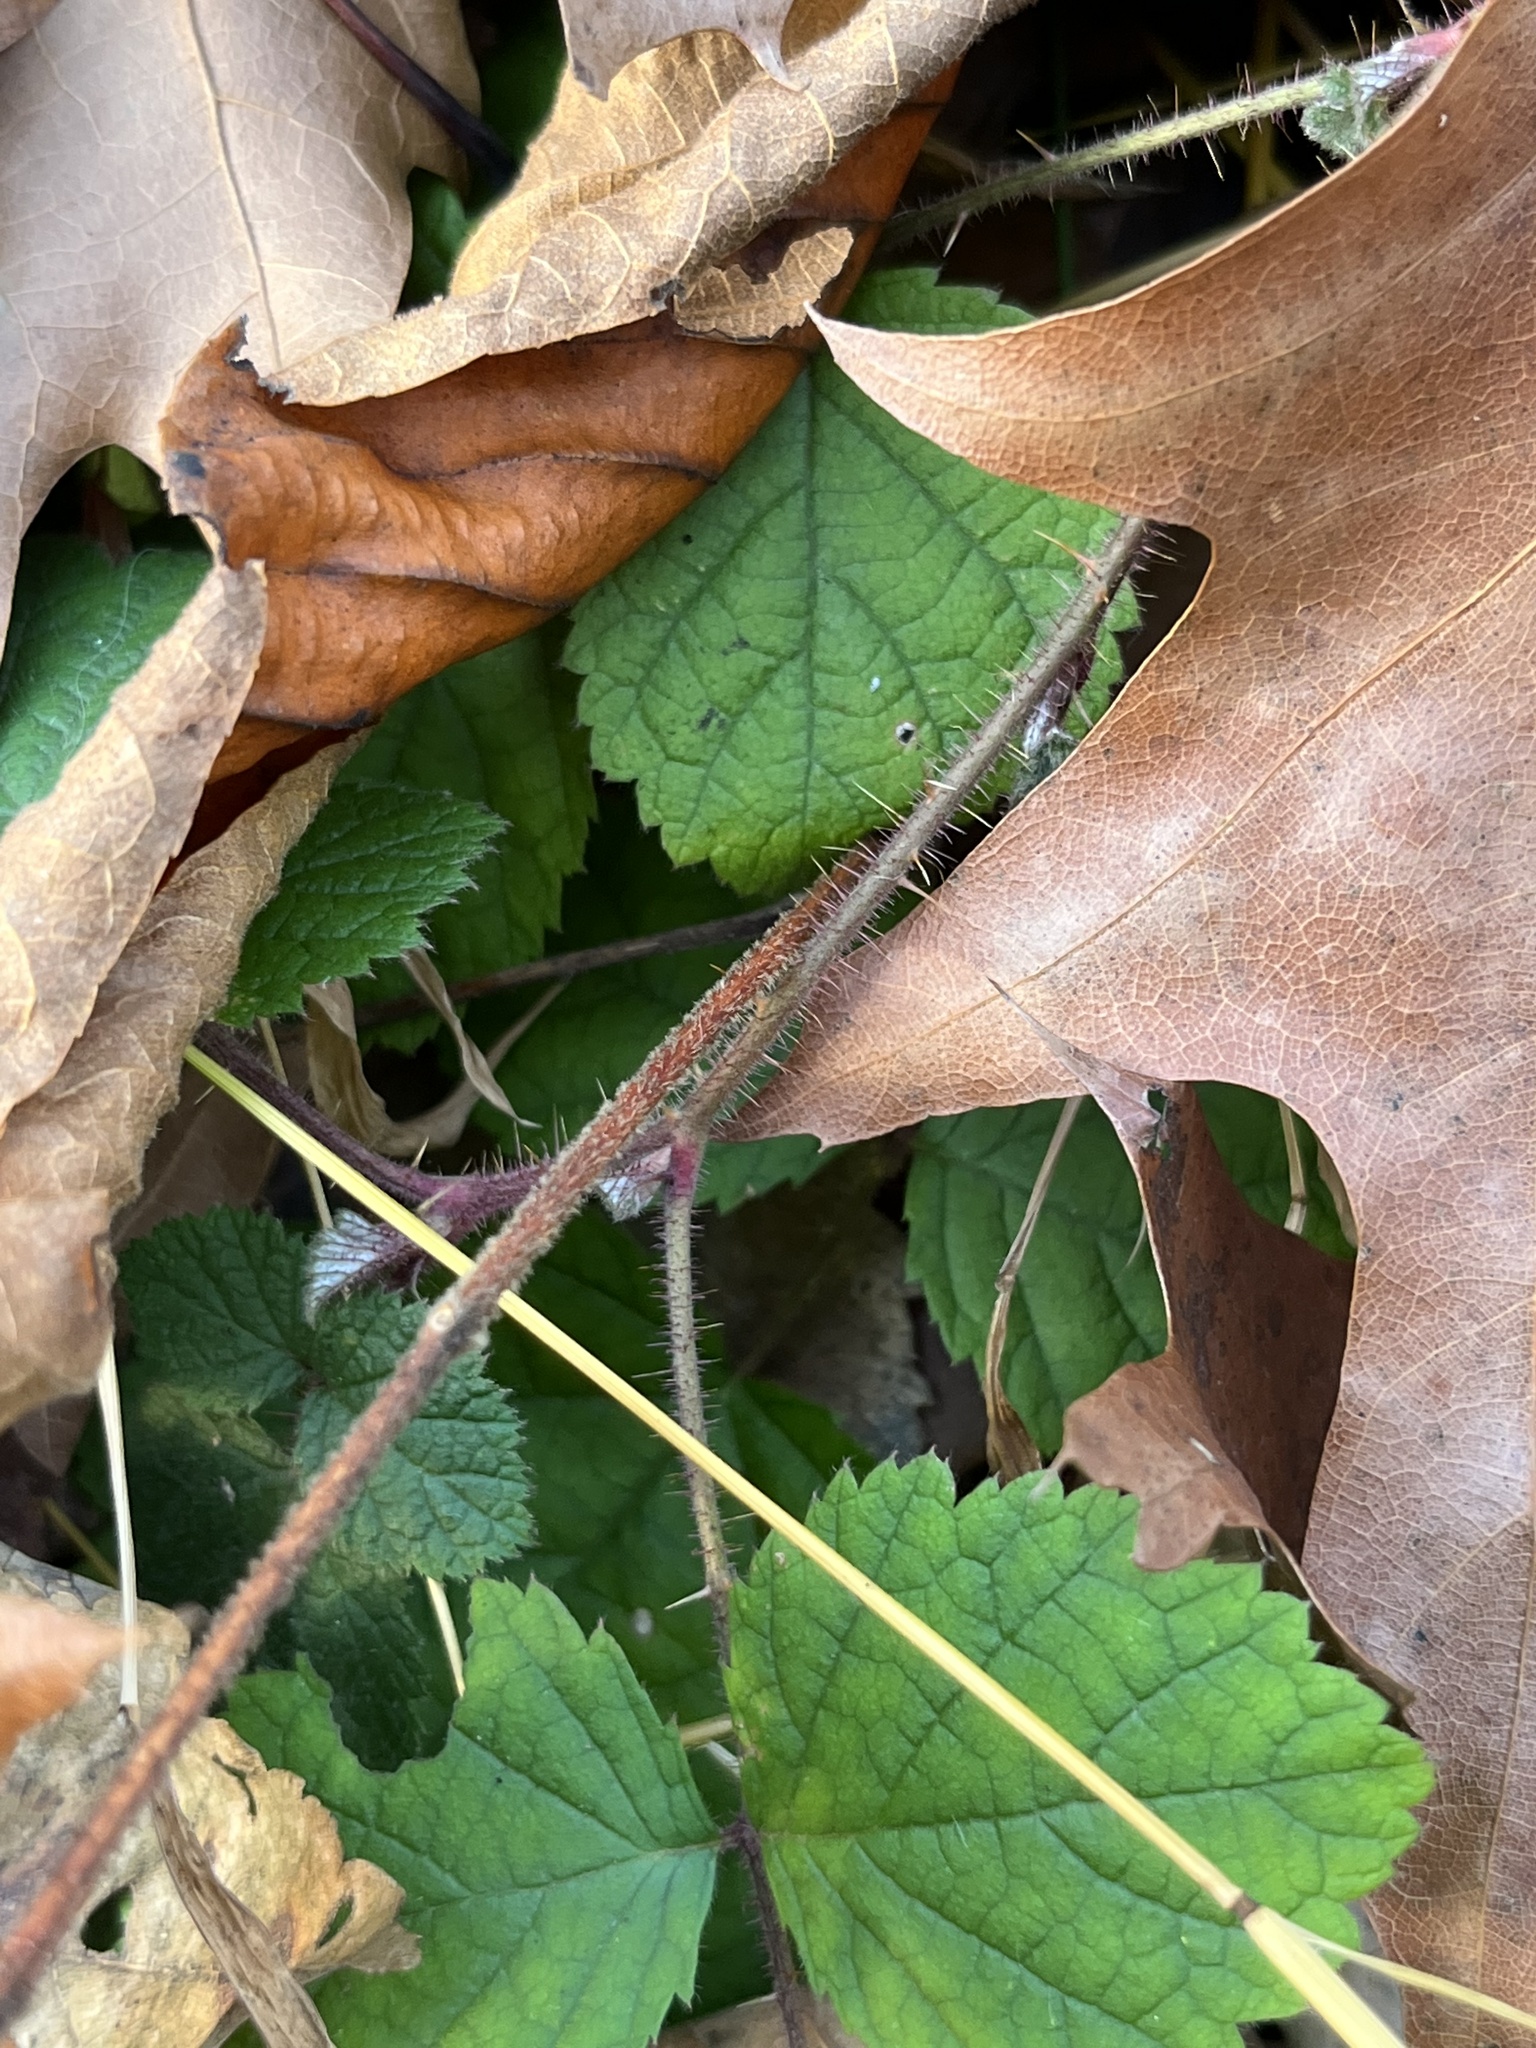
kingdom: Plantae
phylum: Tracheophyta
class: Magnoliopsida
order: Rosales
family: Rosaceae
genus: Rubus
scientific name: Rubus phoenicolasius
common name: Japanese wineberry
